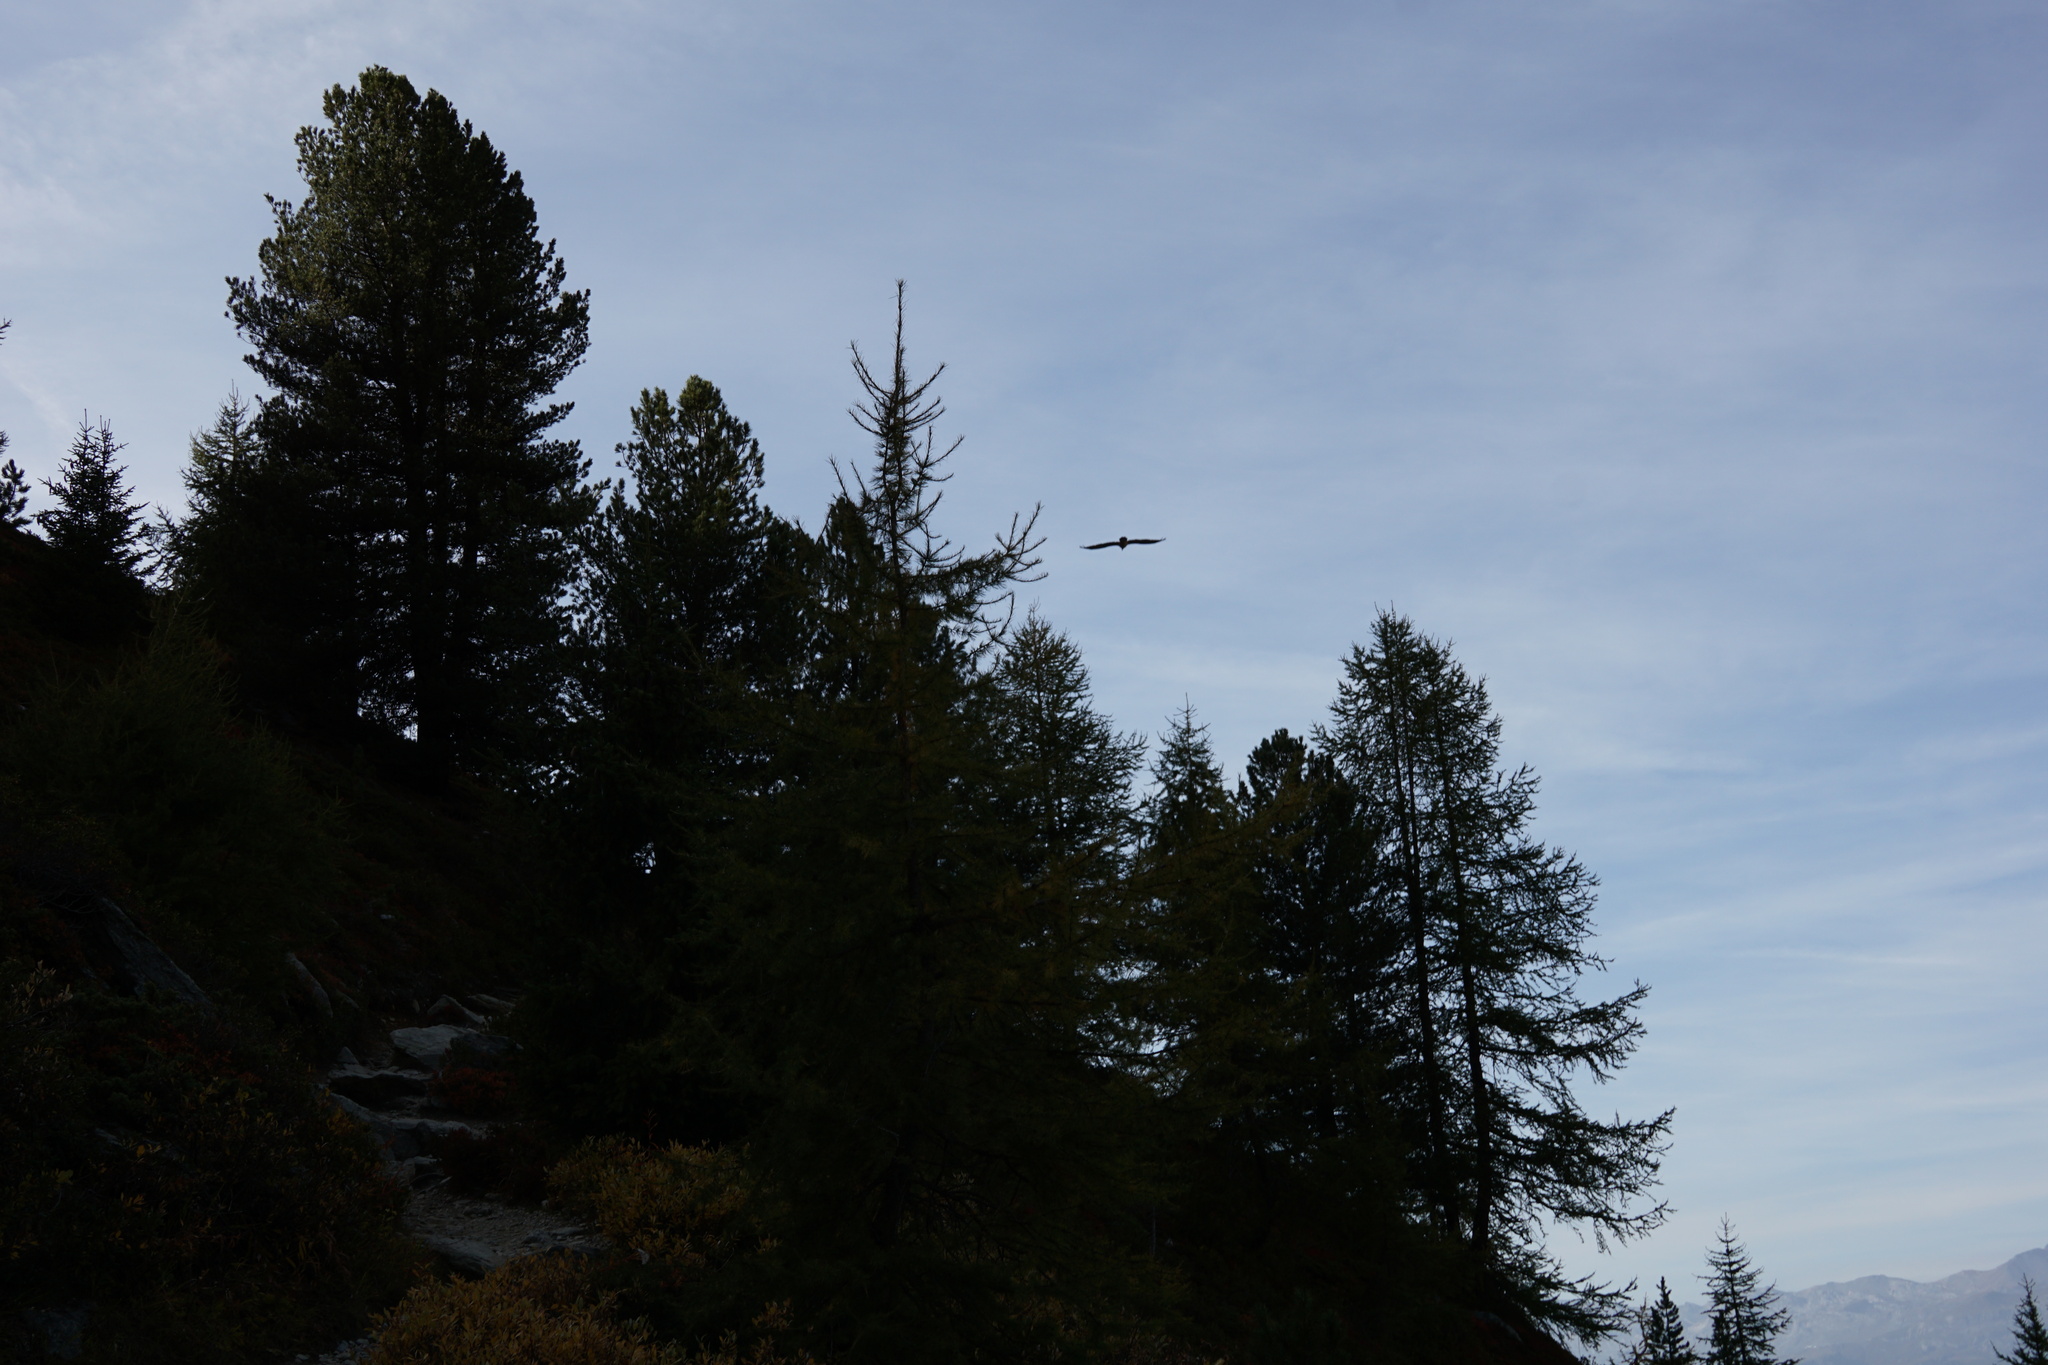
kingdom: Animalia
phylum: Chordata
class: Aves
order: Accipitriformes
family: Accipitridae
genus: Gypaetus
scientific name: Gypaetus barbatus
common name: Bearded vulture
